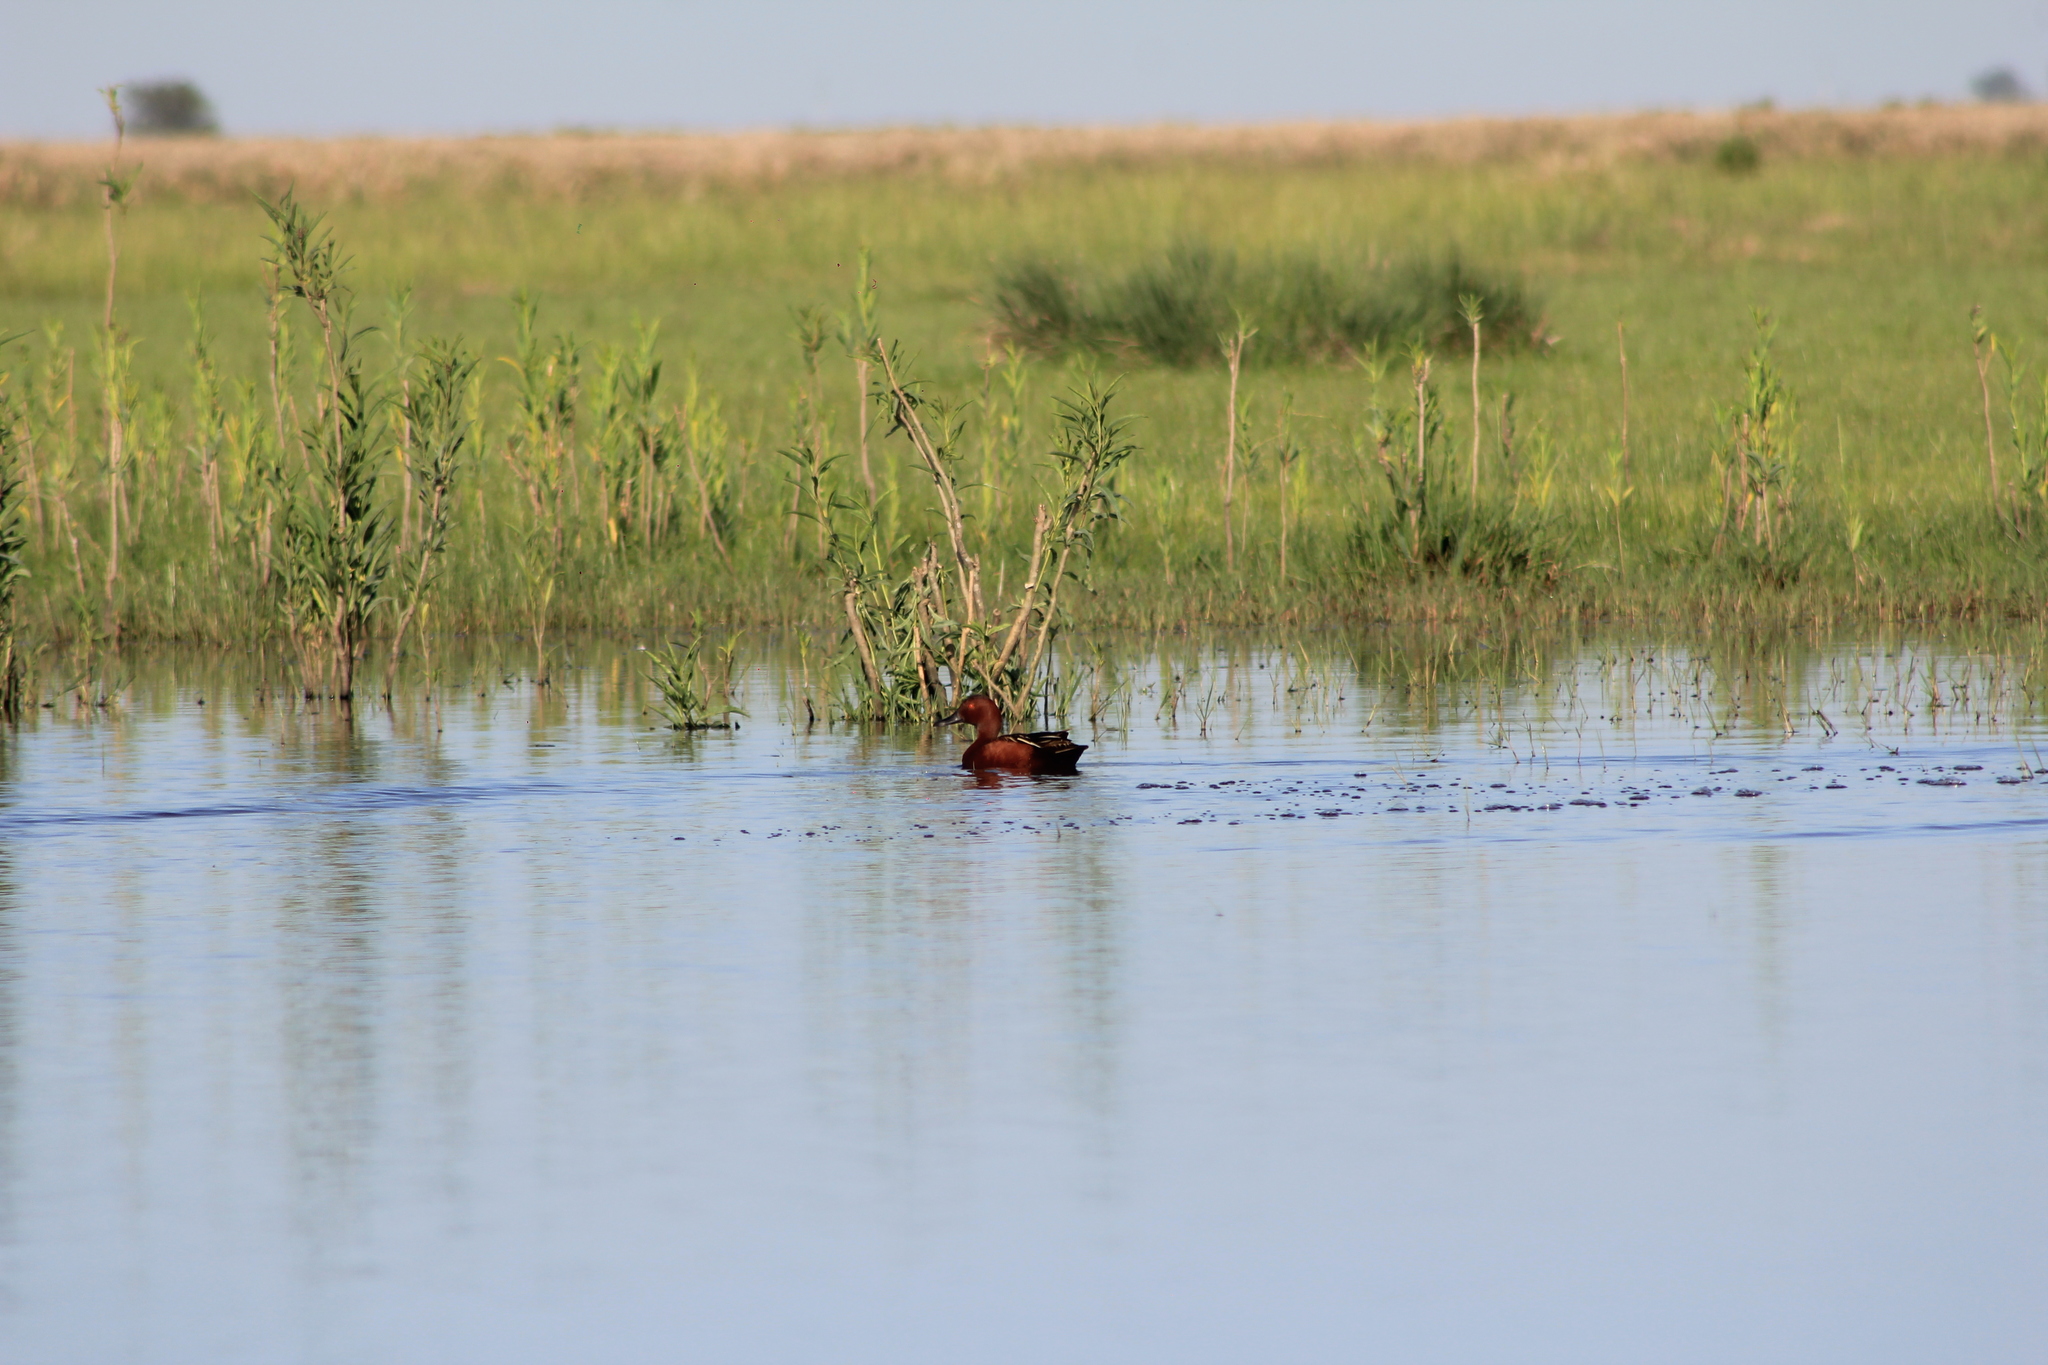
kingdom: Animalia
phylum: Chordata
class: Aves
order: Anseriformes
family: Anatidae
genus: Spatula
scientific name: Spatula cyanoptera
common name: Cinnamon teal
